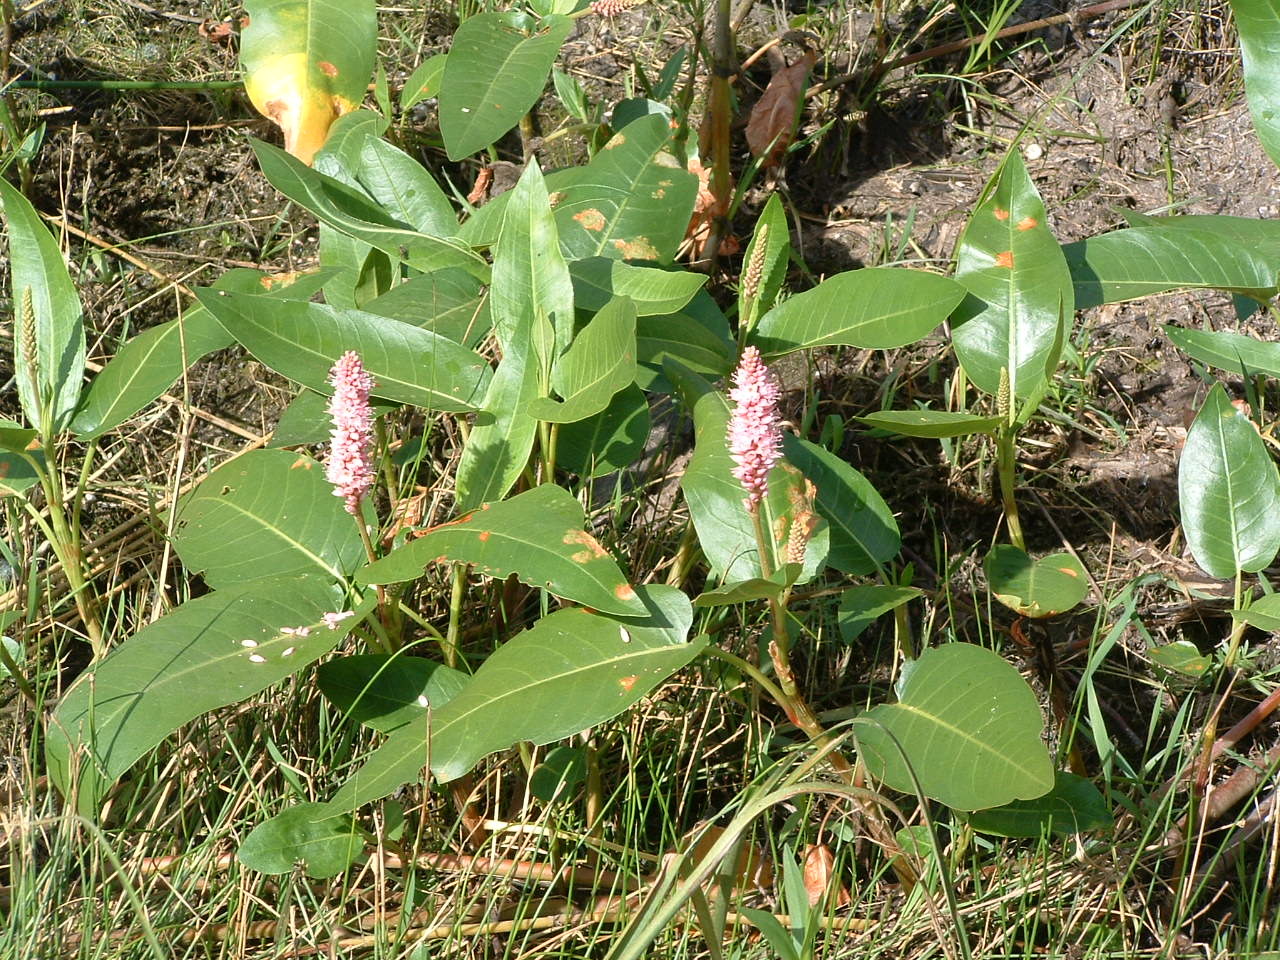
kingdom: Plantae
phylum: Tracheophyta
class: Magnoliopsida
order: Caryophyllales
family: Polygonaceae
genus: Persicaria
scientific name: Persicaria amphibia
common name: Amphibious bistort
